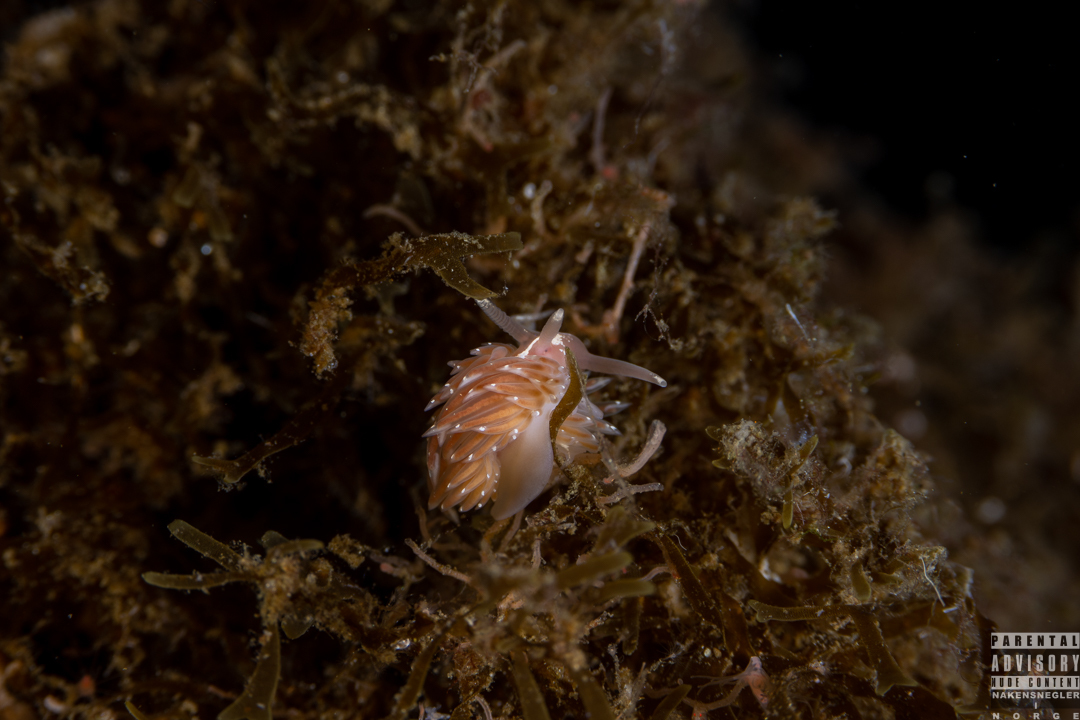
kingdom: Animalia
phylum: Mollusca
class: Gastropoda
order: Nudibranchia
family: Facelinidae
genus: Facelina
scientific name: Facelina bostoniensis
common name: Boston facelina
